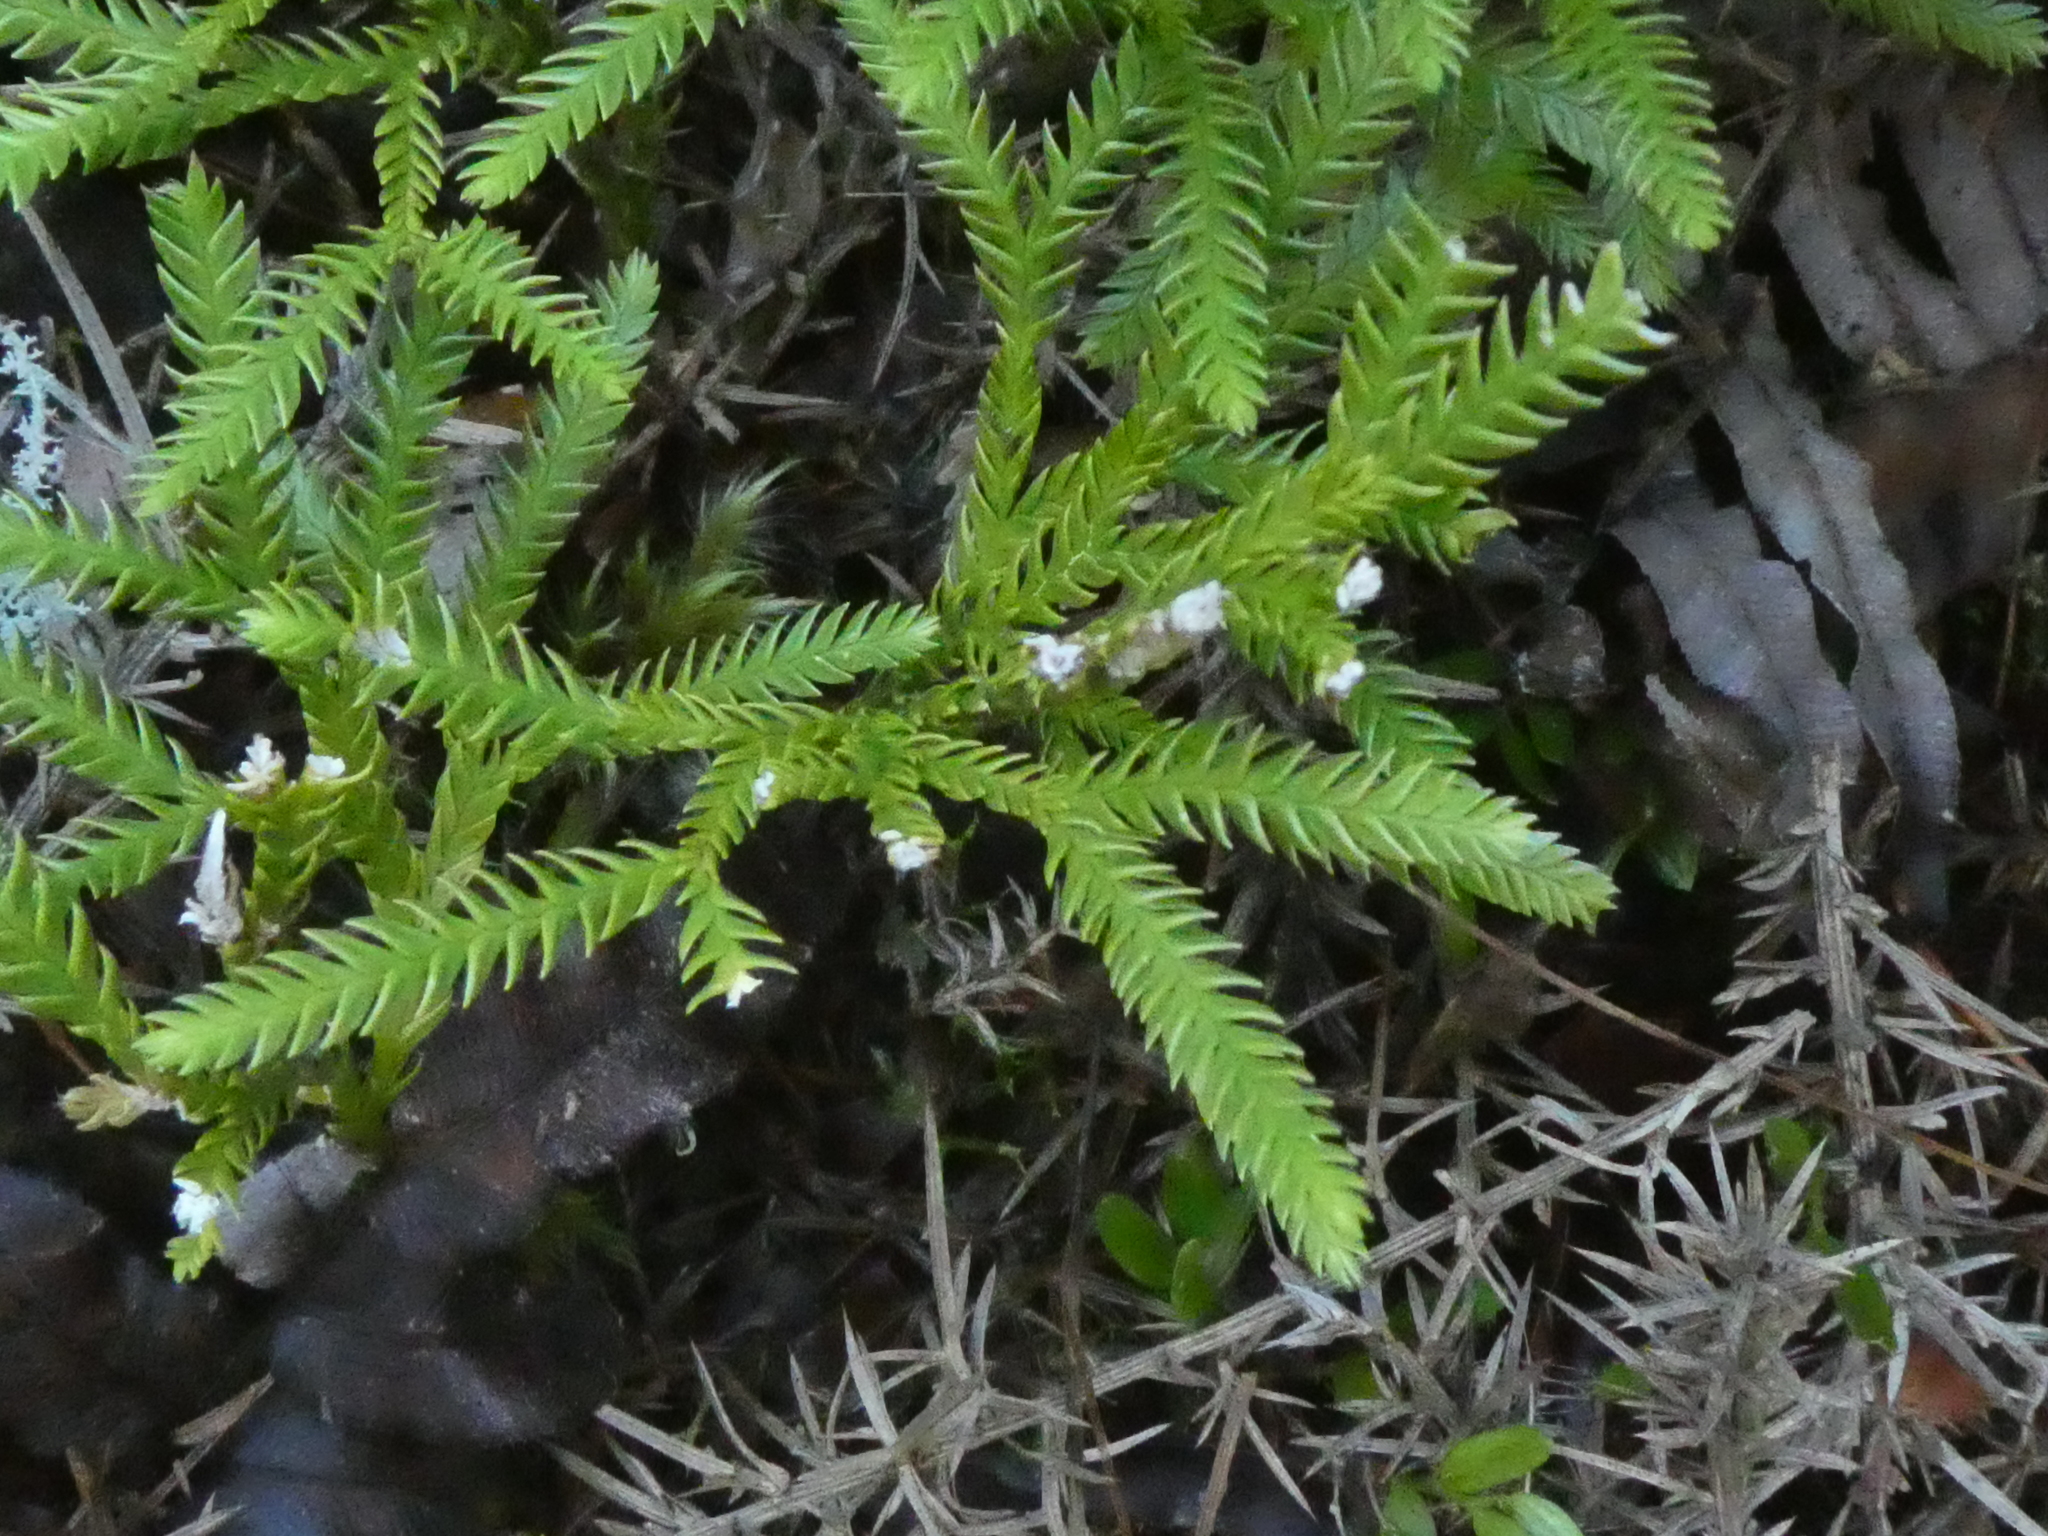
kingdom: Plantae
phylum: Tracheophyta
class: Lycopodiopsida
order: Lycopodiales
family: Lycopodiaceae
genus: Diphasium
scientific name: Diphasium scariosum
